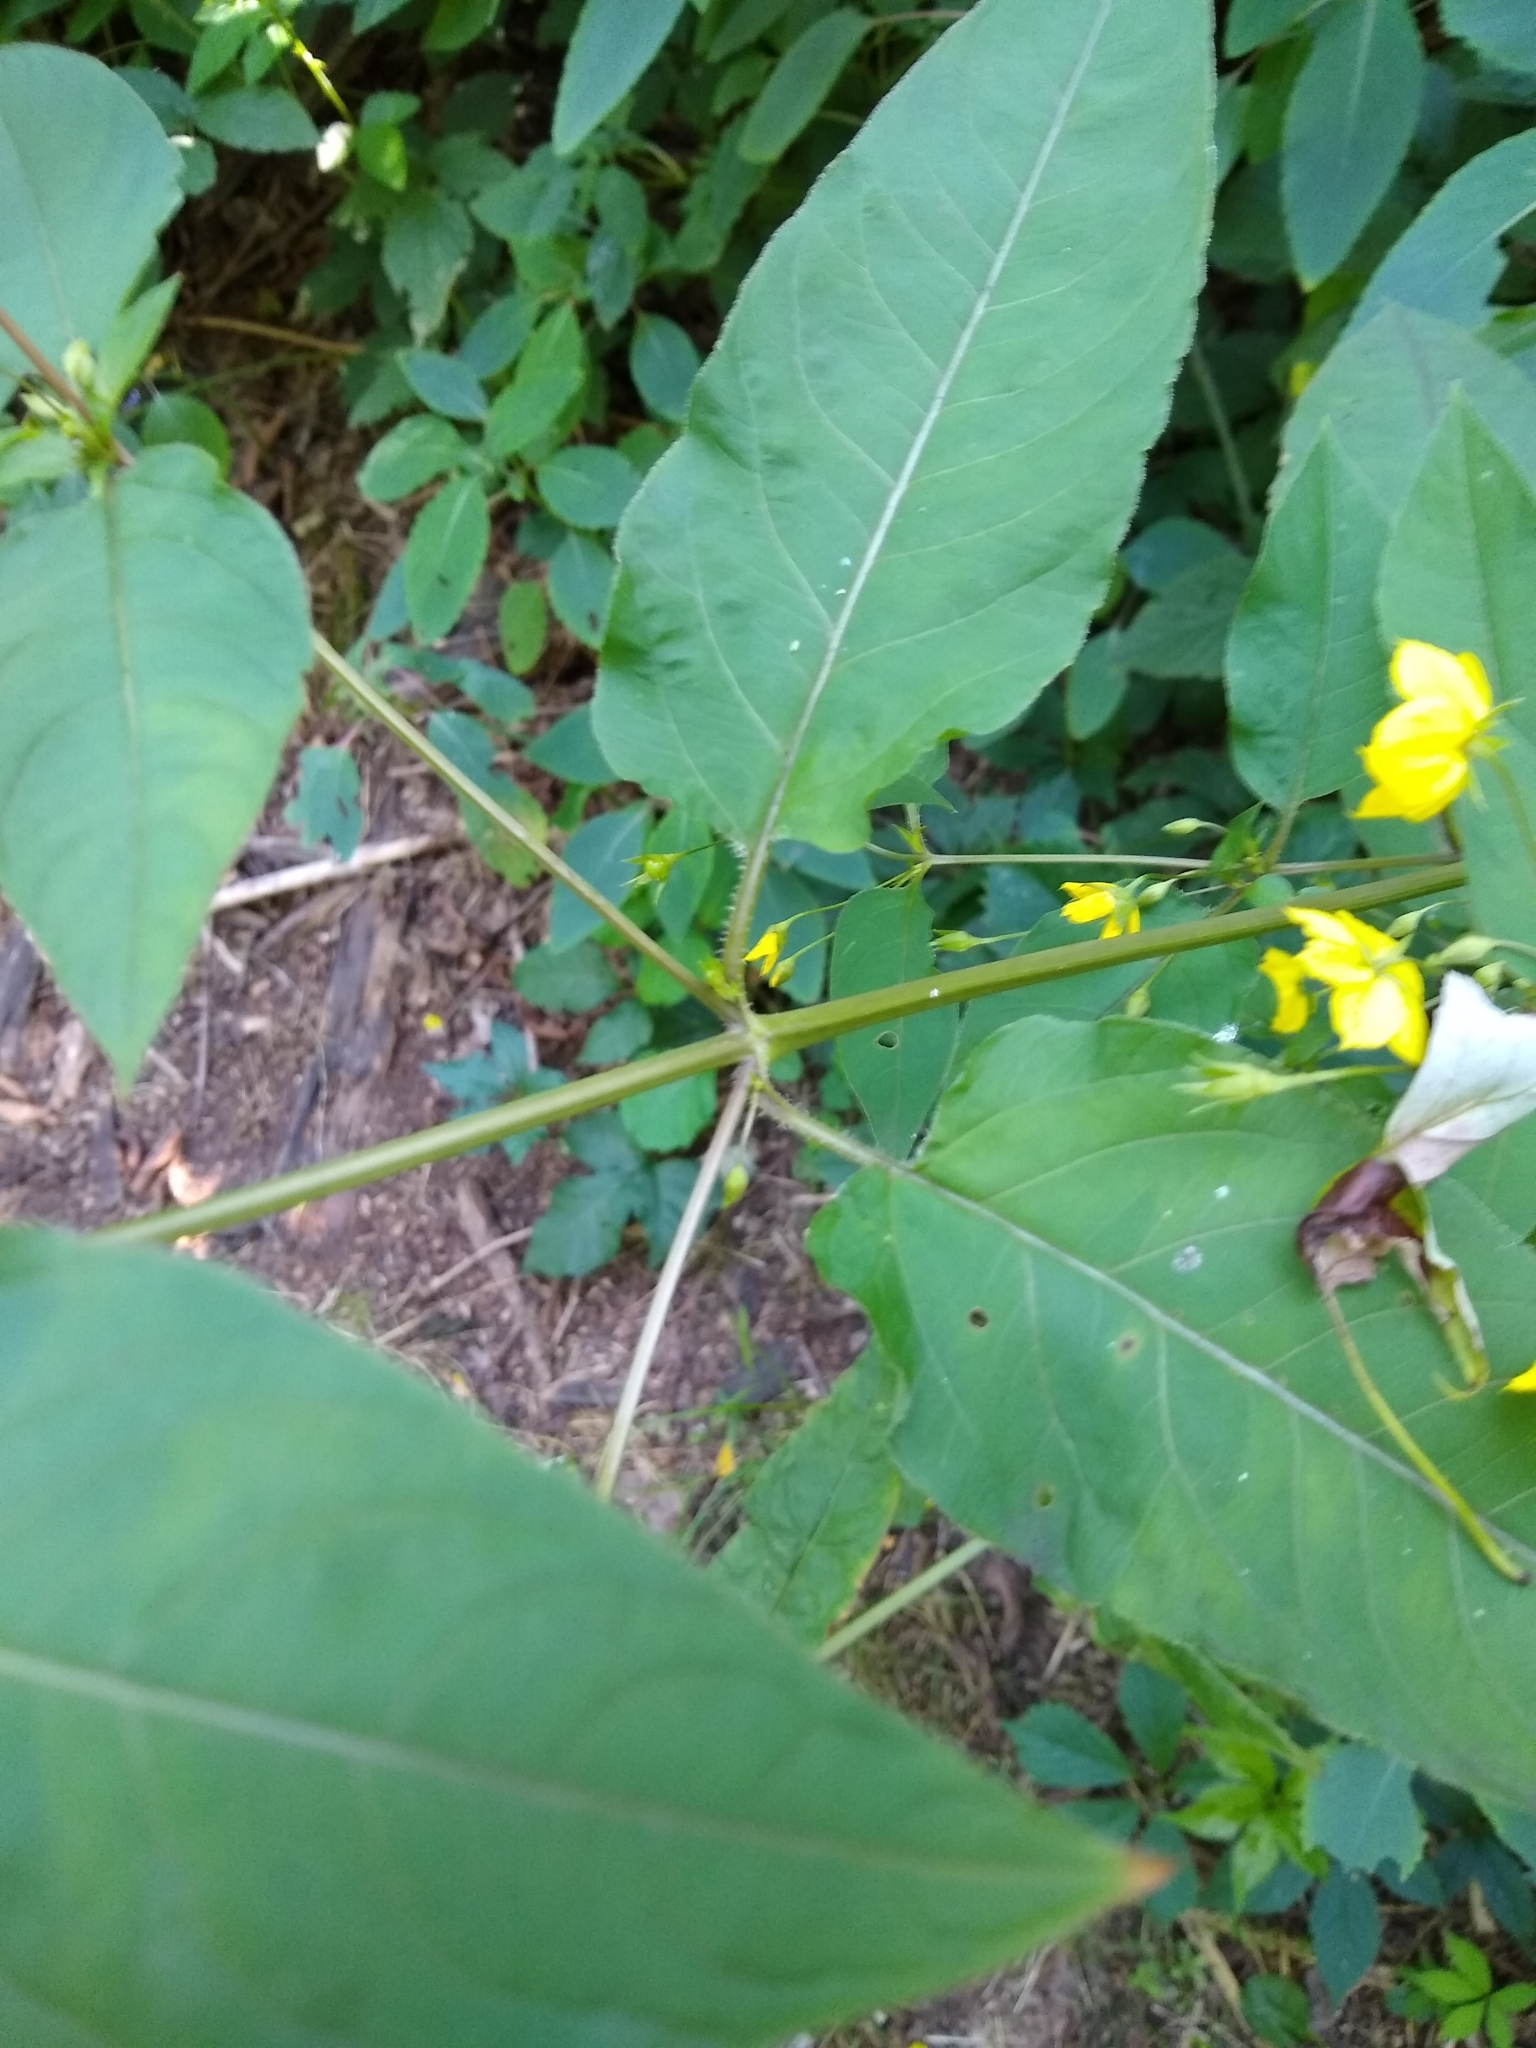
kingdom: Plantae
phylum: Tracheophyta
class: Magnoliopsida
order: Ericales
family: Primulaceae
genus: Lysimachia
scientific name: Lysimachia ciliata
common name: Fringed loosestrife
